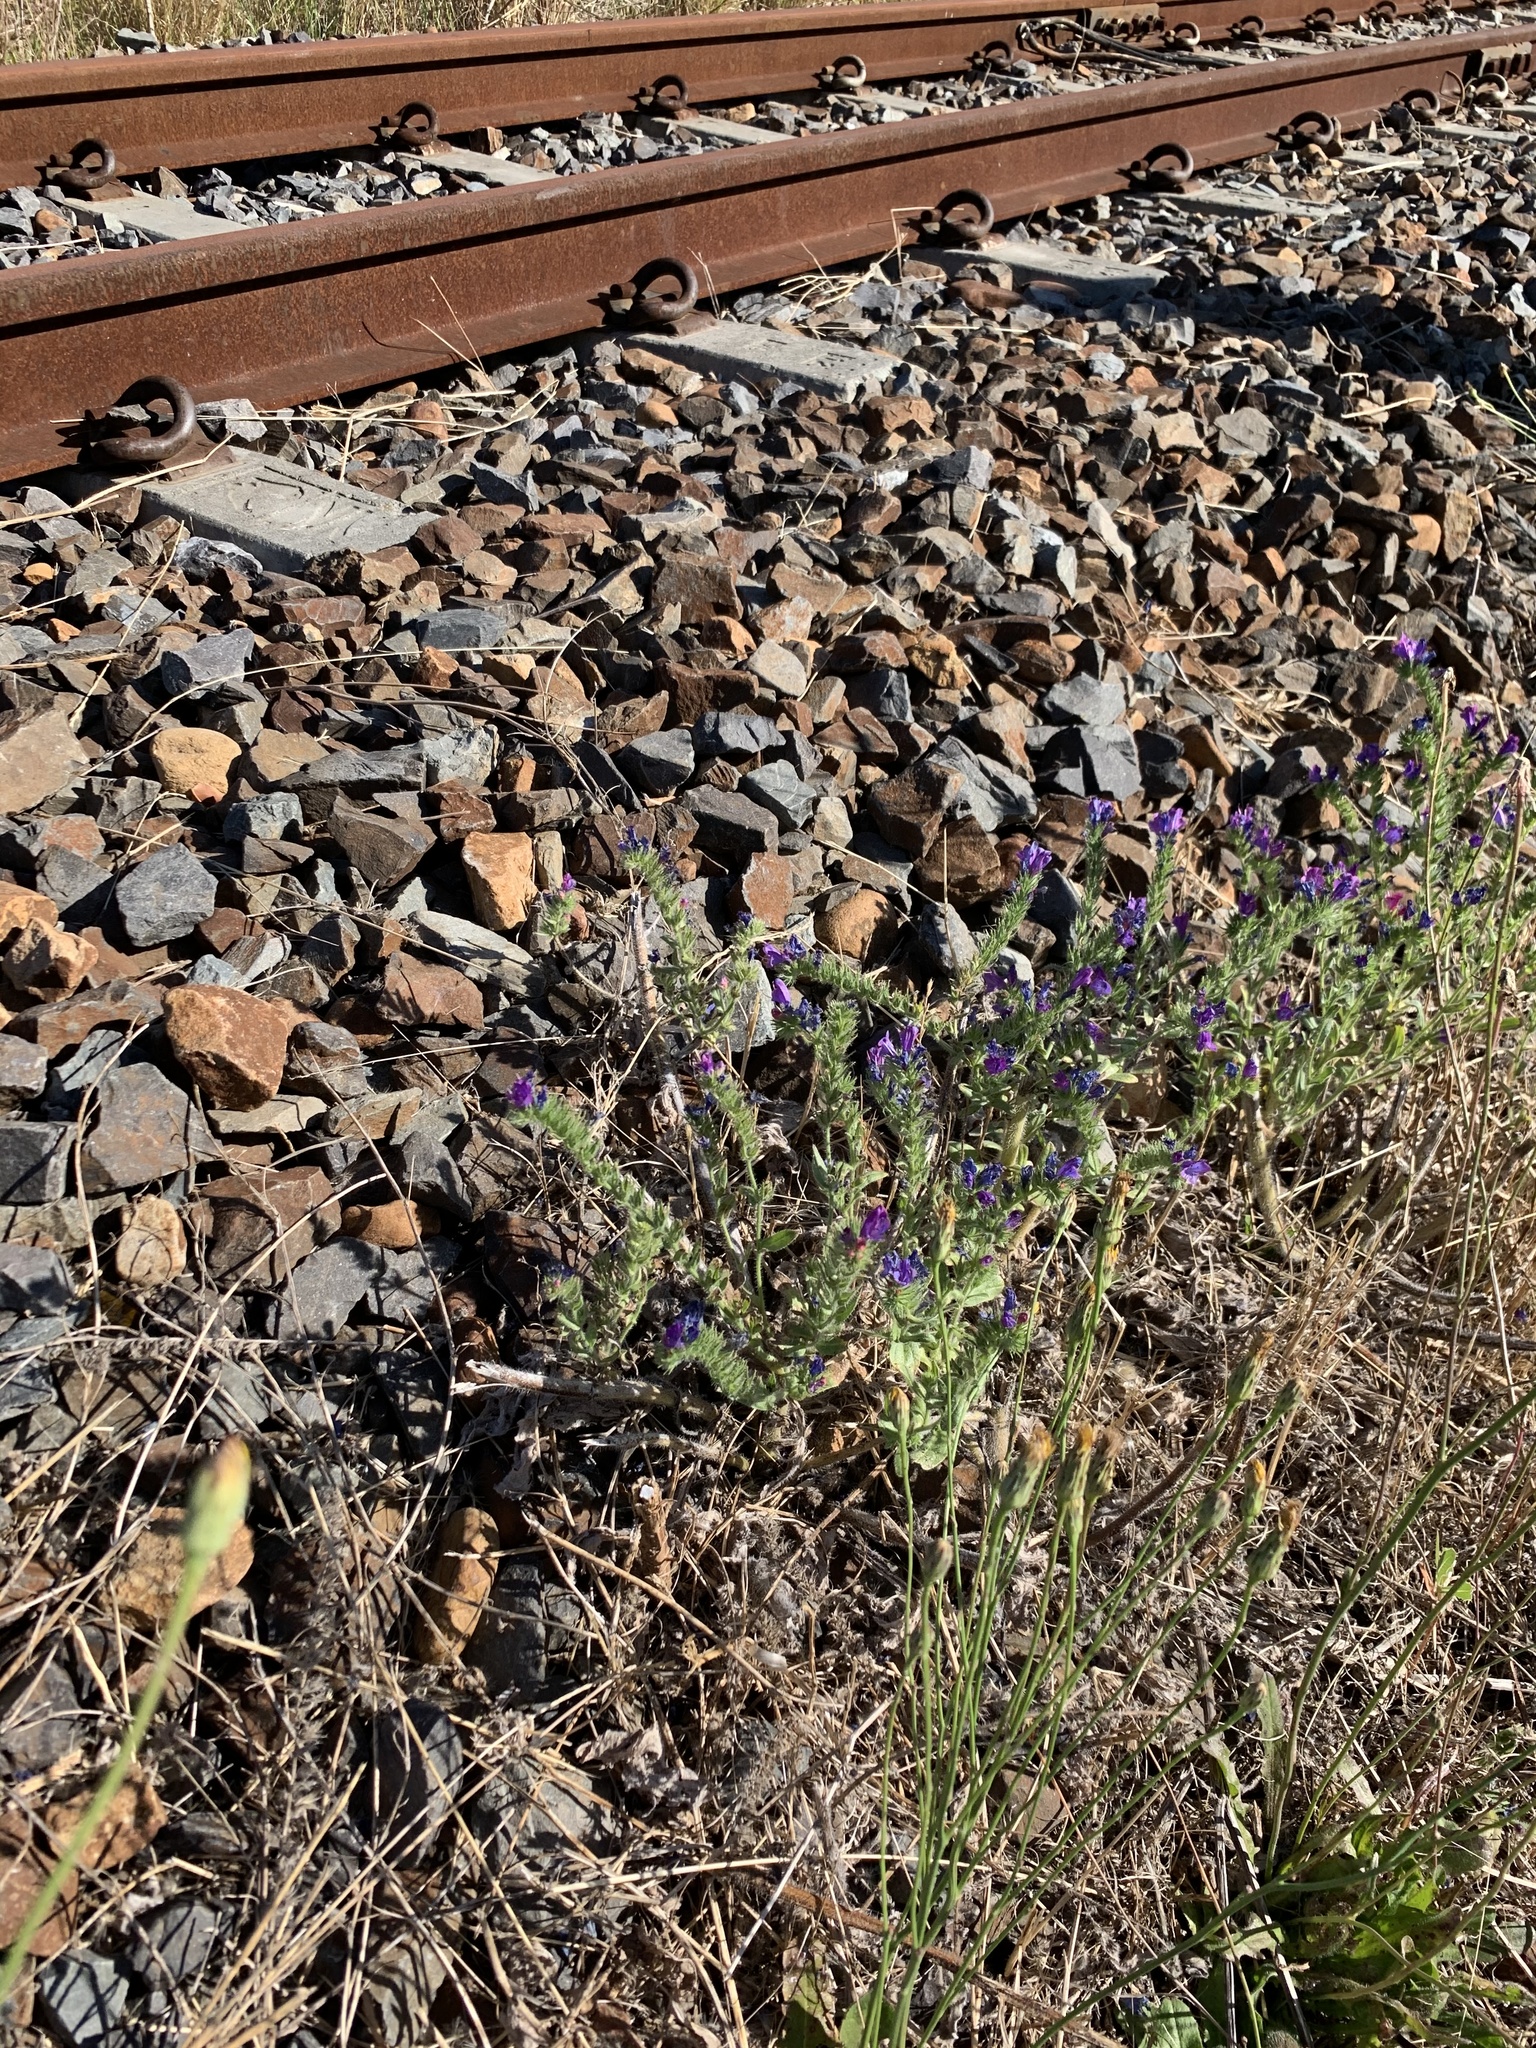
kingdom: Plantae
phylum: Tracheophyta
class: Magnoliopsida
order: Boraginales
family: Boraginaceae
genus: Echium
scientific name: Echium plantagineum
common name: Purple viper's-bugloss
